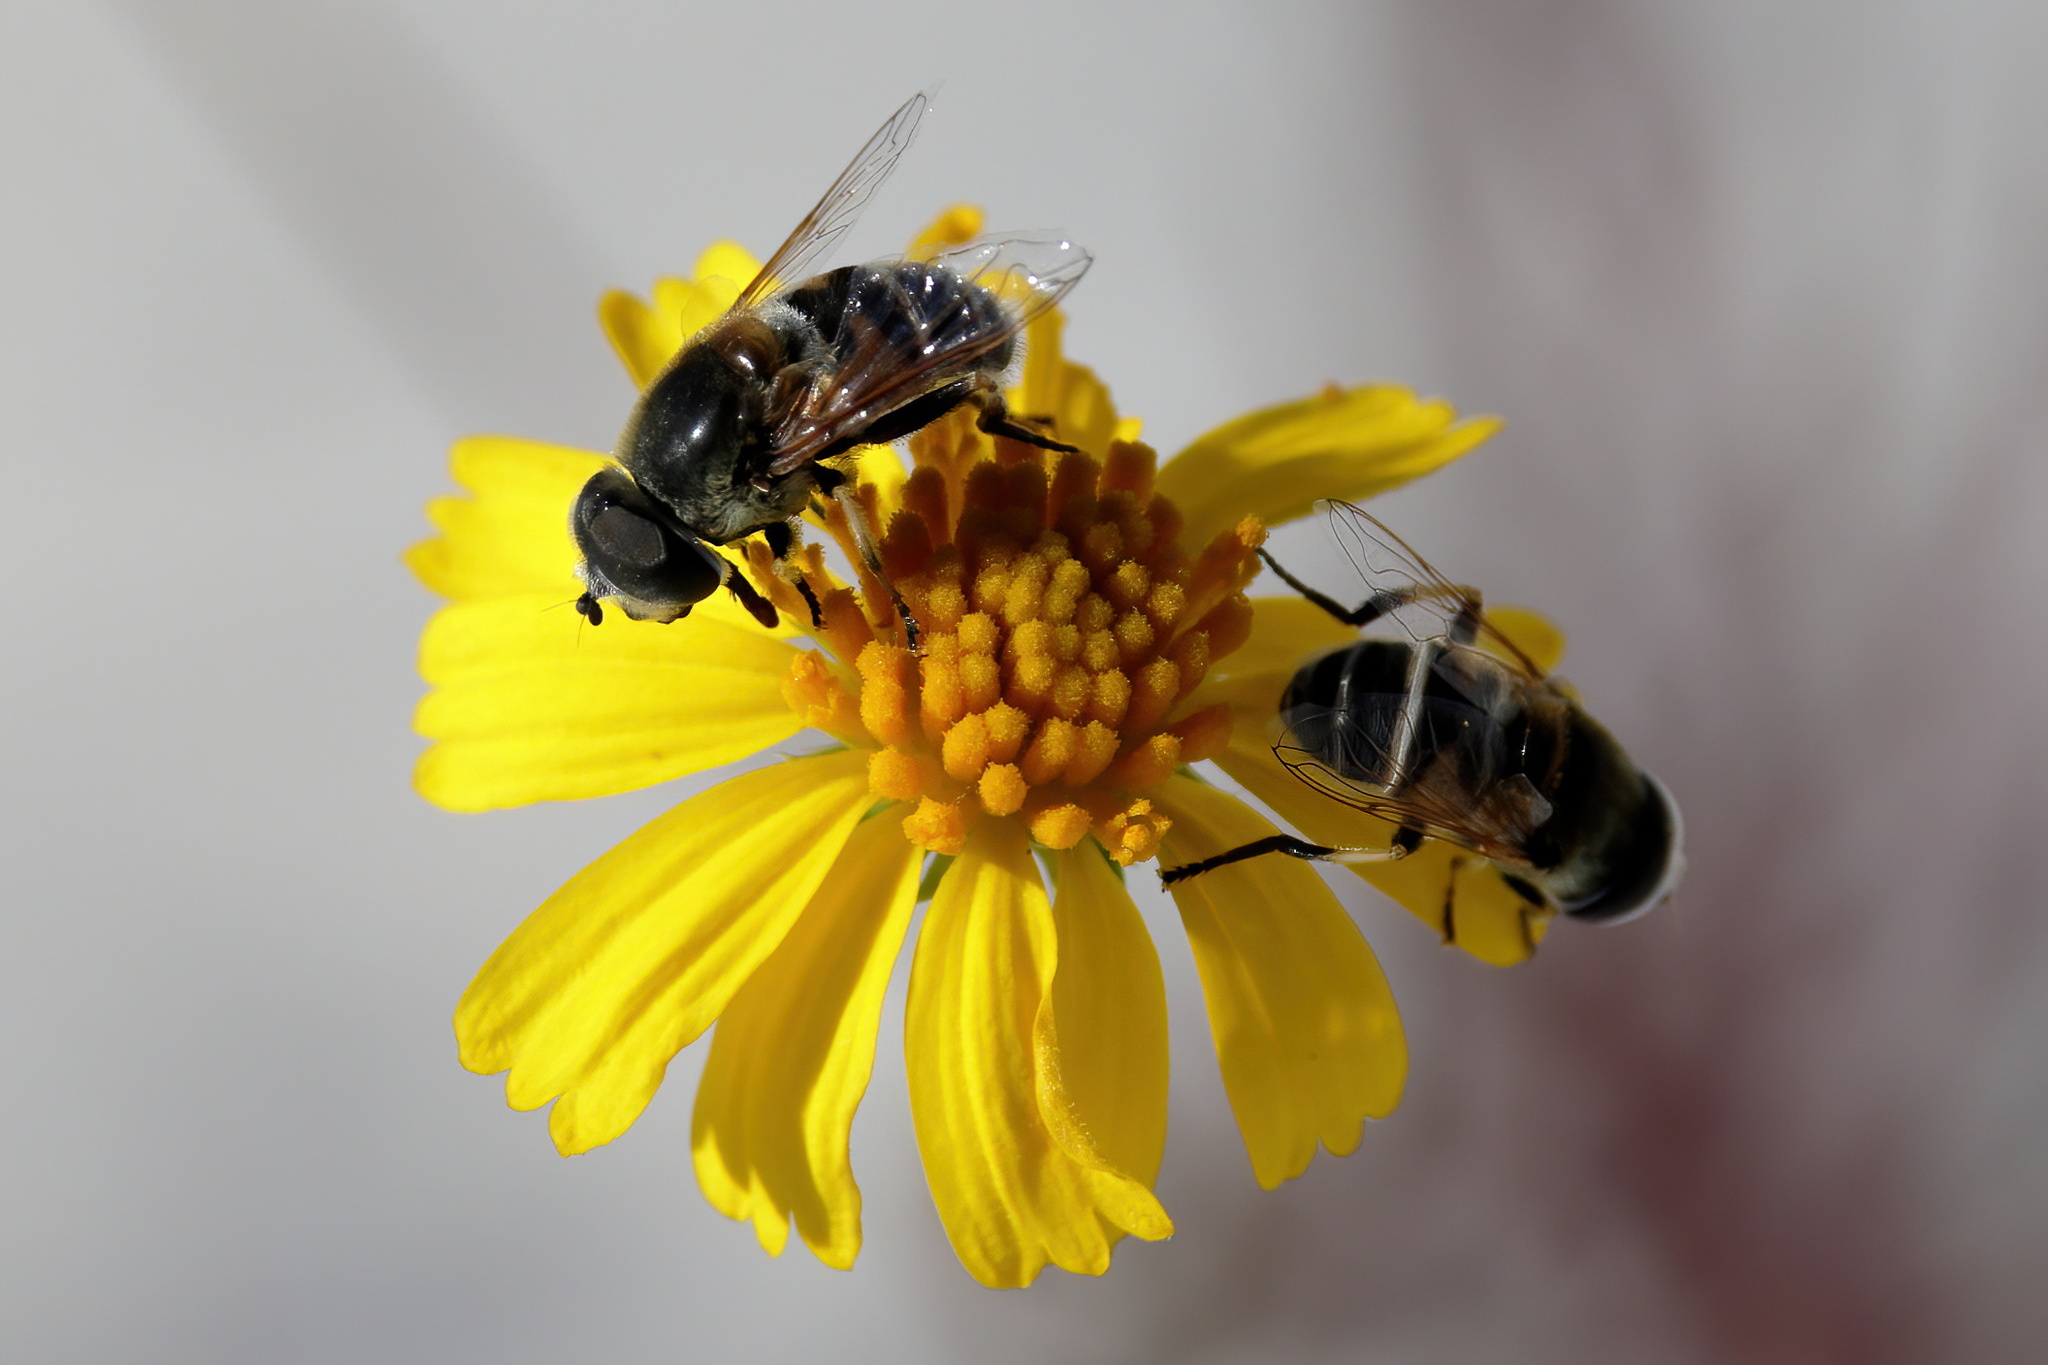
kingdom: Animalia
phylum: Arthropoda
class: Insecta
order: Diptera
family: Syrphidae
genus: Eristalis
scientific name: Eristalis stipator
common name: Yellow-shouldered drone fly
